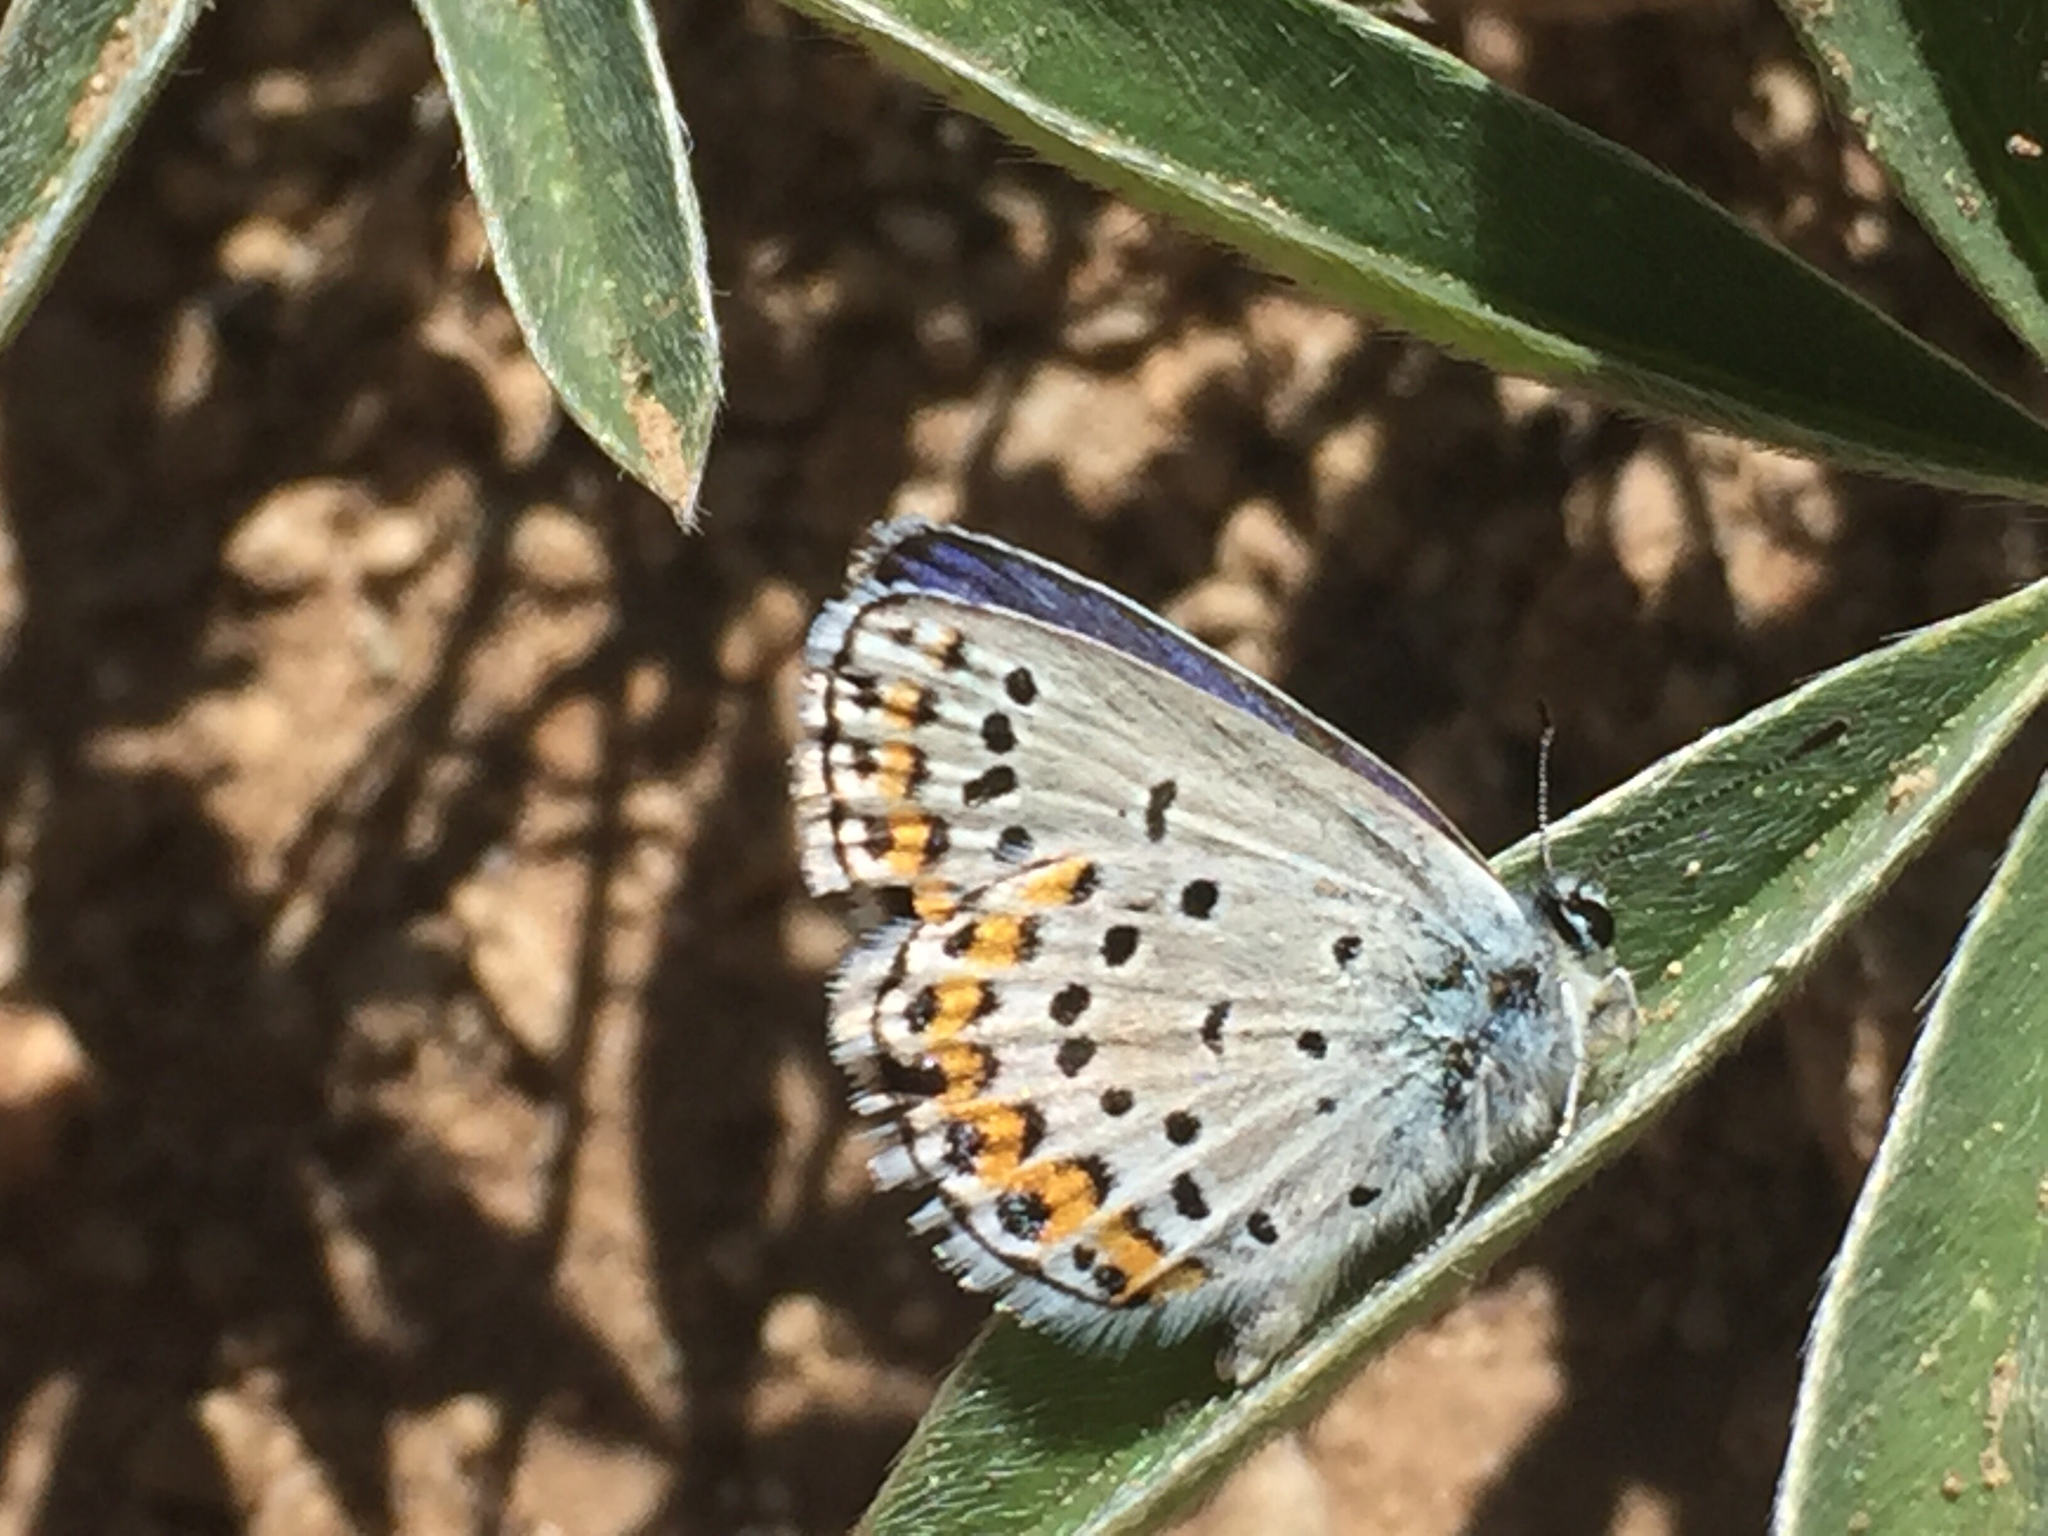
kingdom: Animalia
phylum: Arthropoda
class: Insecta
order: Lepidoptera
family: Lycaenidae
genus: Lycaeides
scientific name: Lycaeides melissa
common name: Melissa blue
